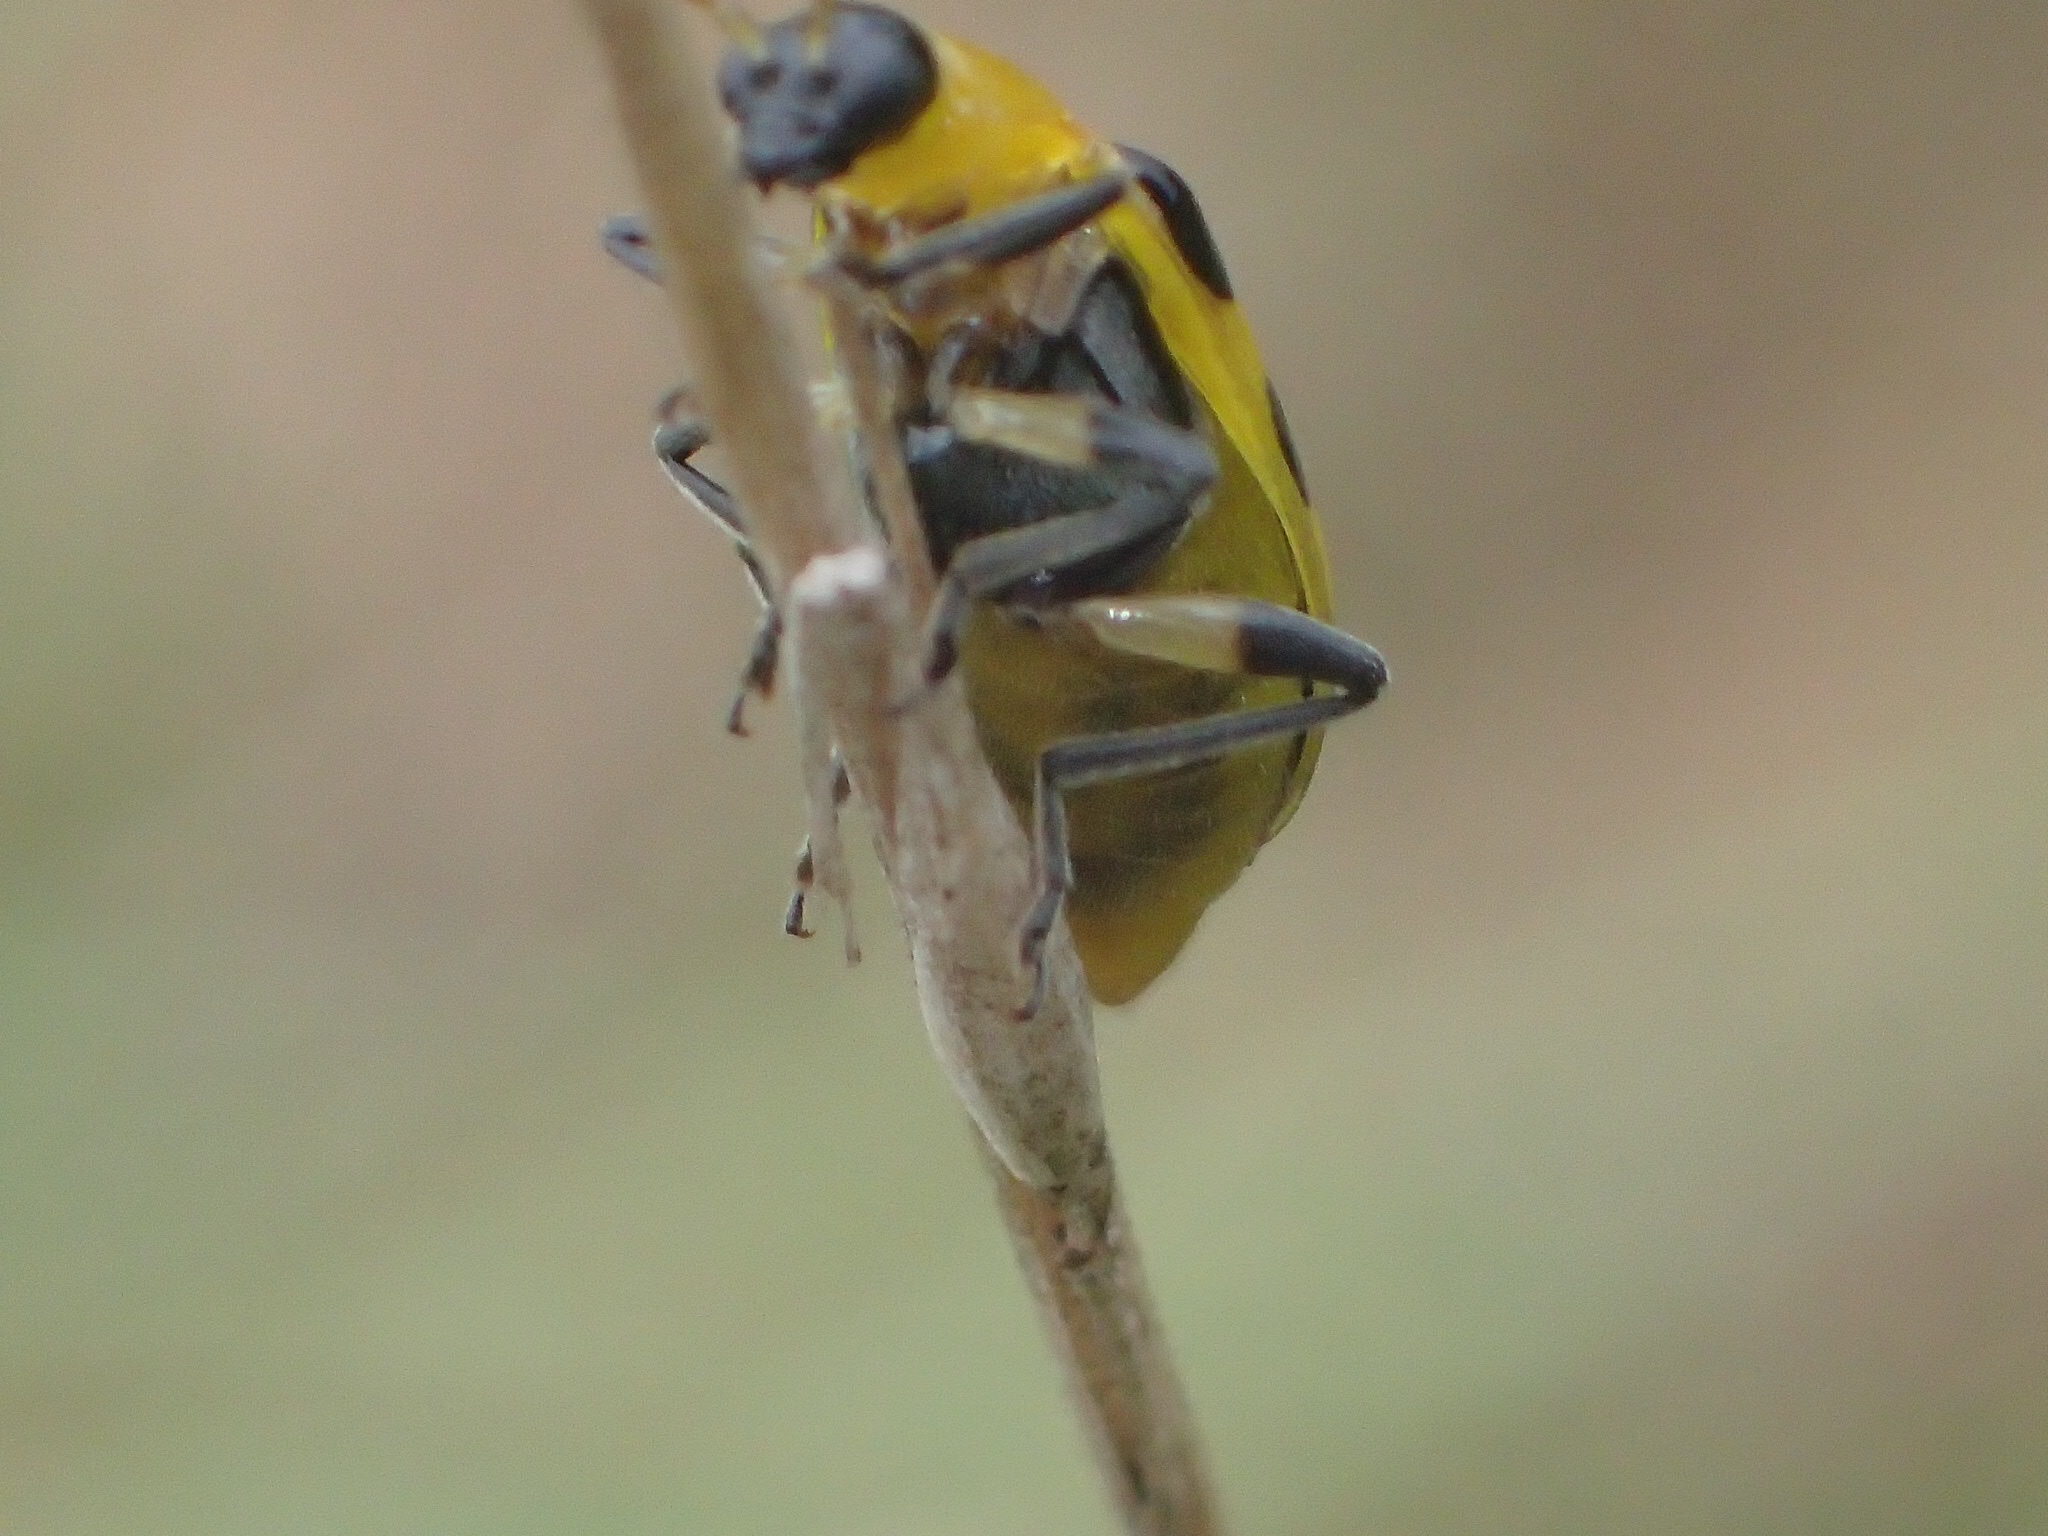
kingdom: Animalia
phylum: Arthropoda
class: Insecta
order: Coleoptera
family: Chrysomelidae
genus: Diabrotica
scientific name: Diabrotica undecimpunctata
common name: Spotted cucumber beetle
